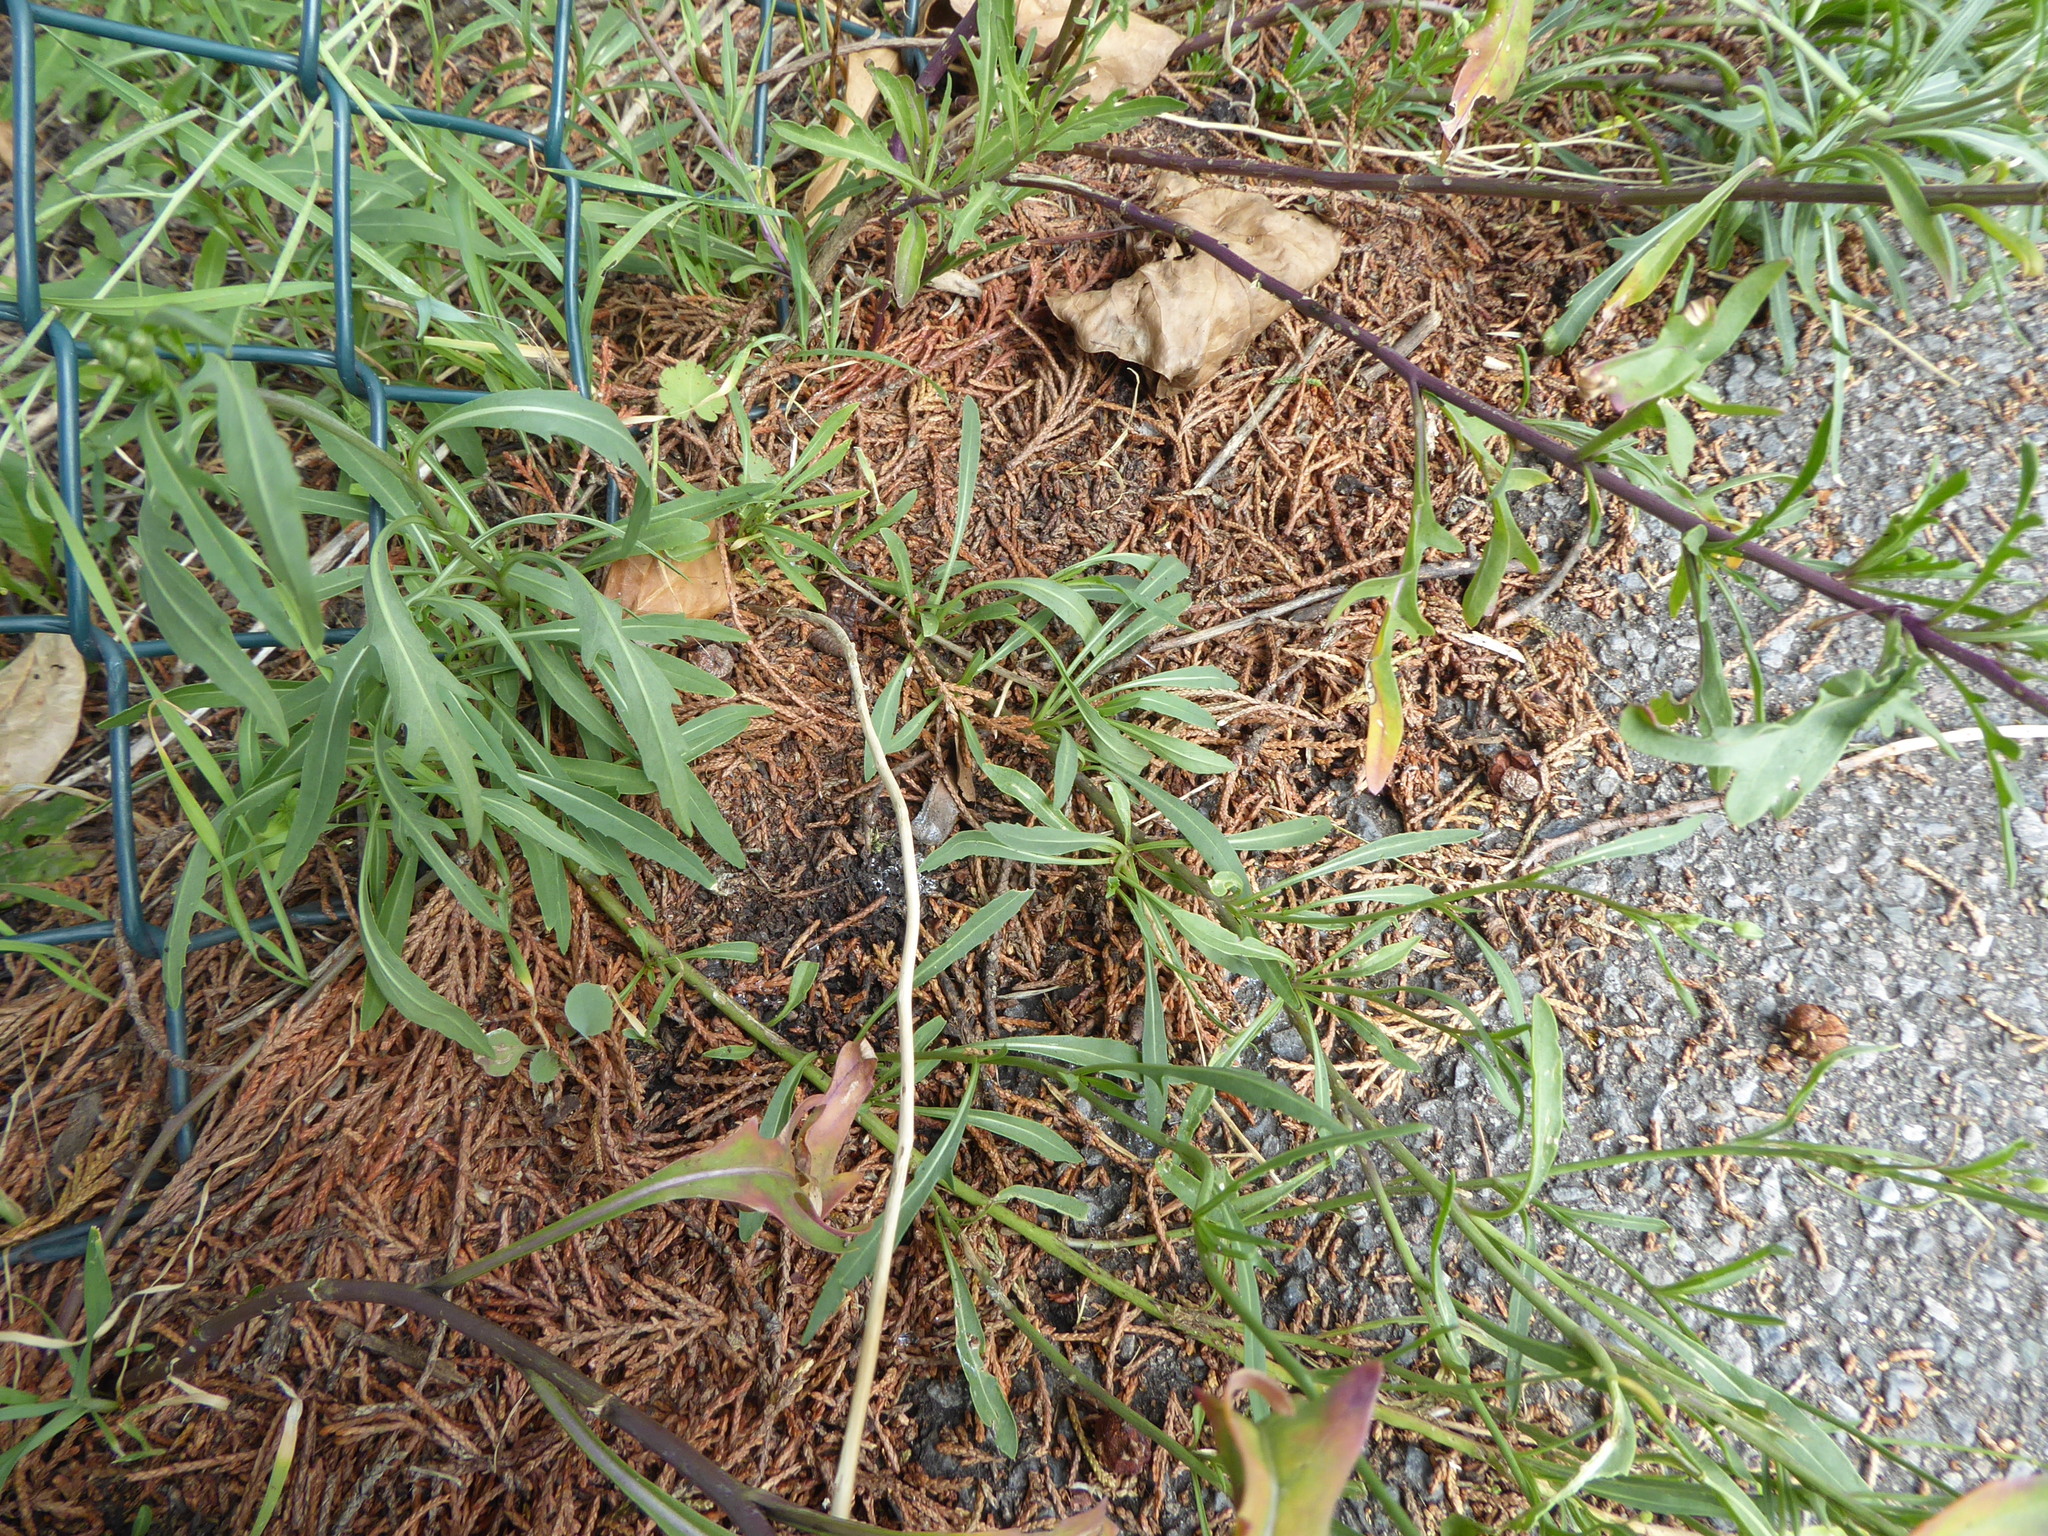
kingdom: Plantae
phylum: Tracheophyta
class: Magnoliopsida
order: Brassicales
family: Brassicaceae
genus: Diplotaxis
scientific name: Diplotaxis tenuifolia
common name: Perennial wall-rocket
